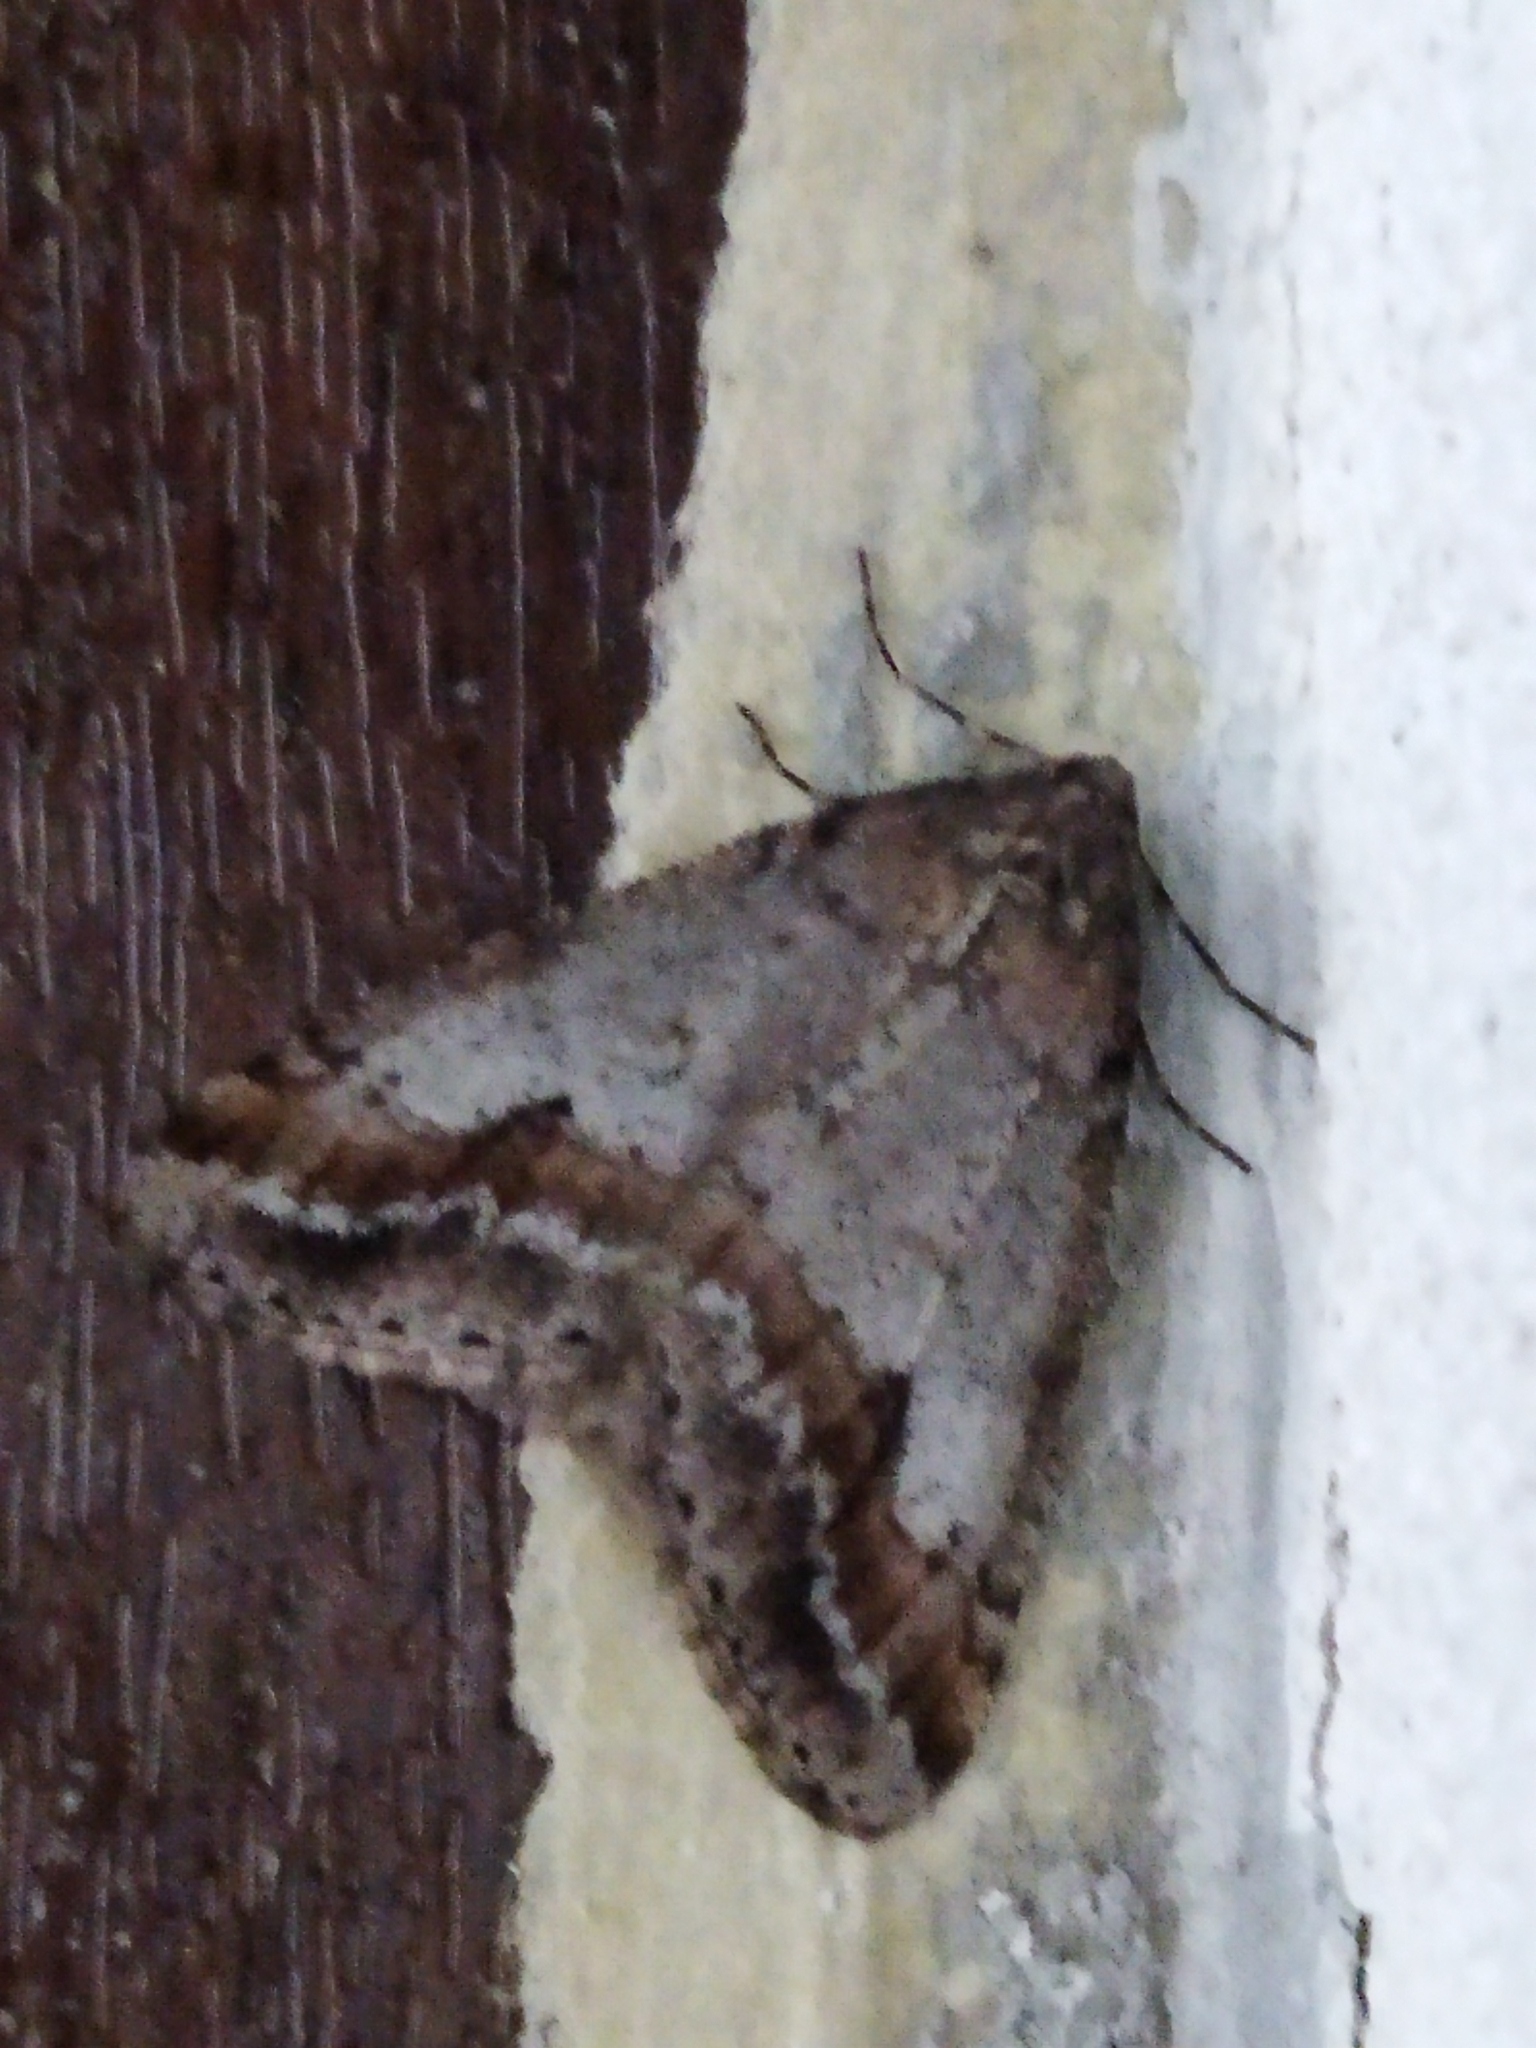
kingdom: Animalia
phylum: Arthropoda
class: Insecta
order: Lepidoptera
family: Geometridae
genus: Erannis
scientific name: Erannis declinans
